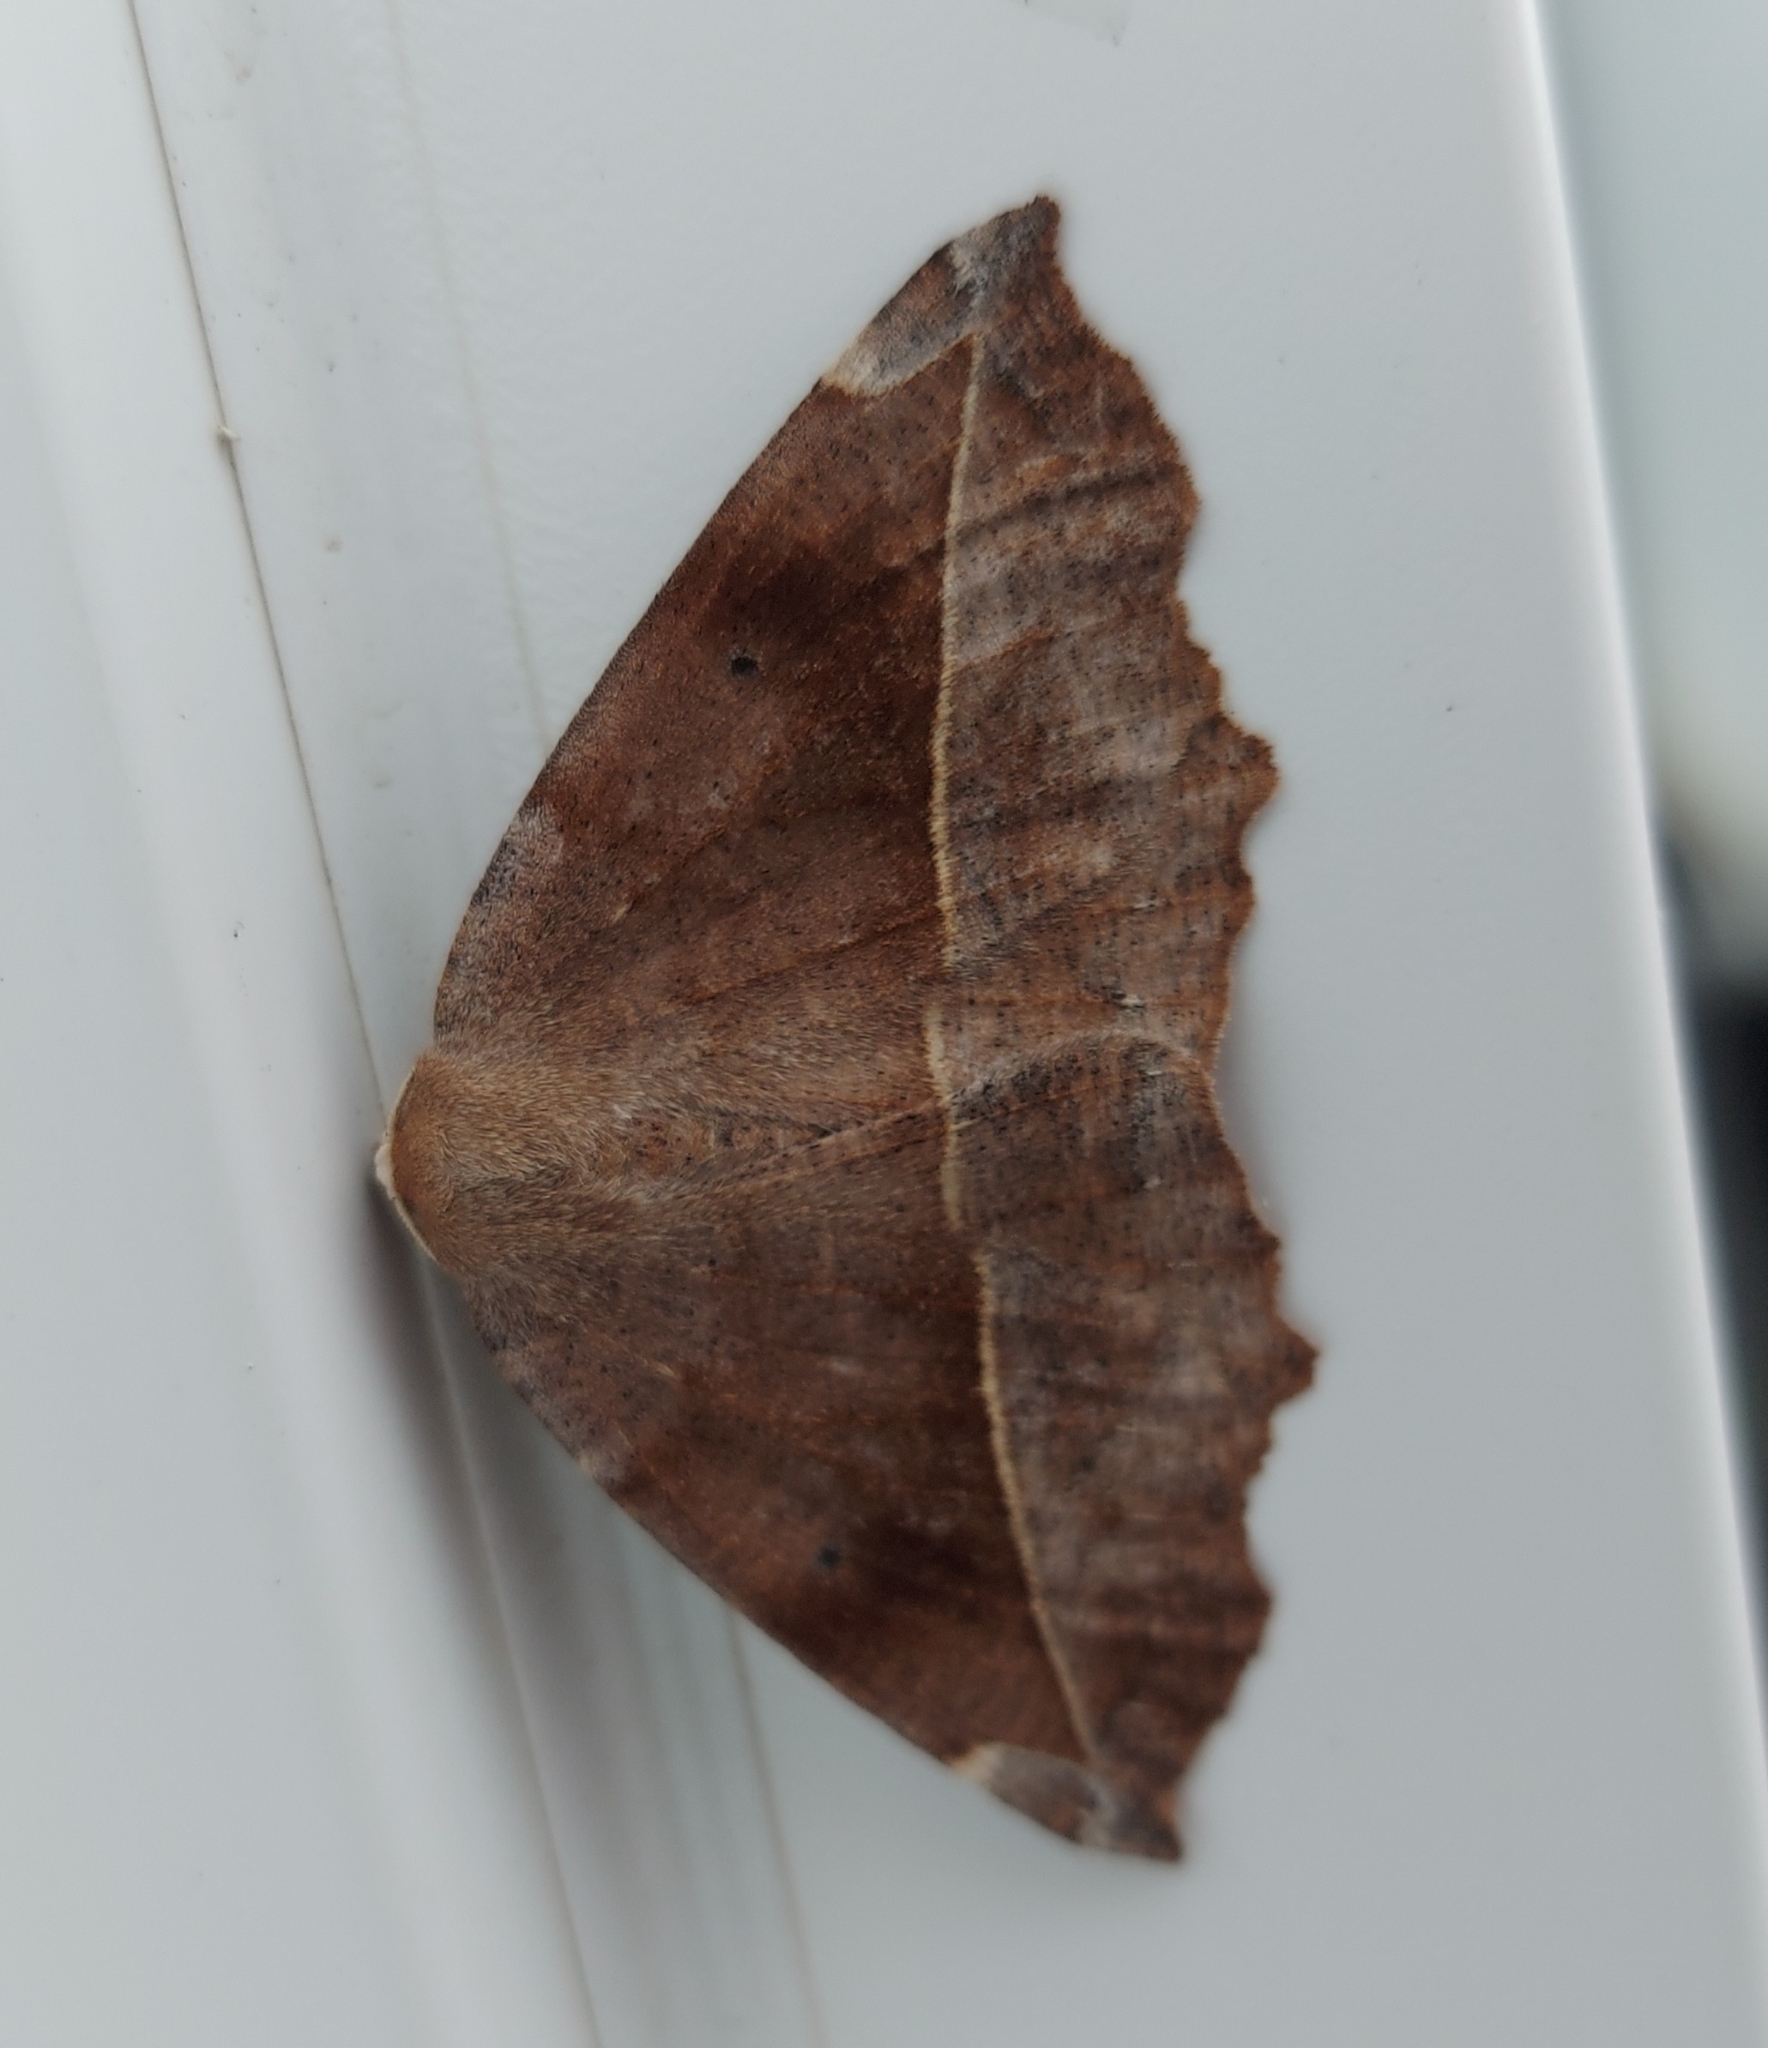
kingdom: Animalia
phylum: Arthropoda
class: Insecta
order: Lepidoptera
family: Geometridae
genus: Eutrapela
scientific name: Eutrapela clemataria
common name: Curved-toothed geometer
